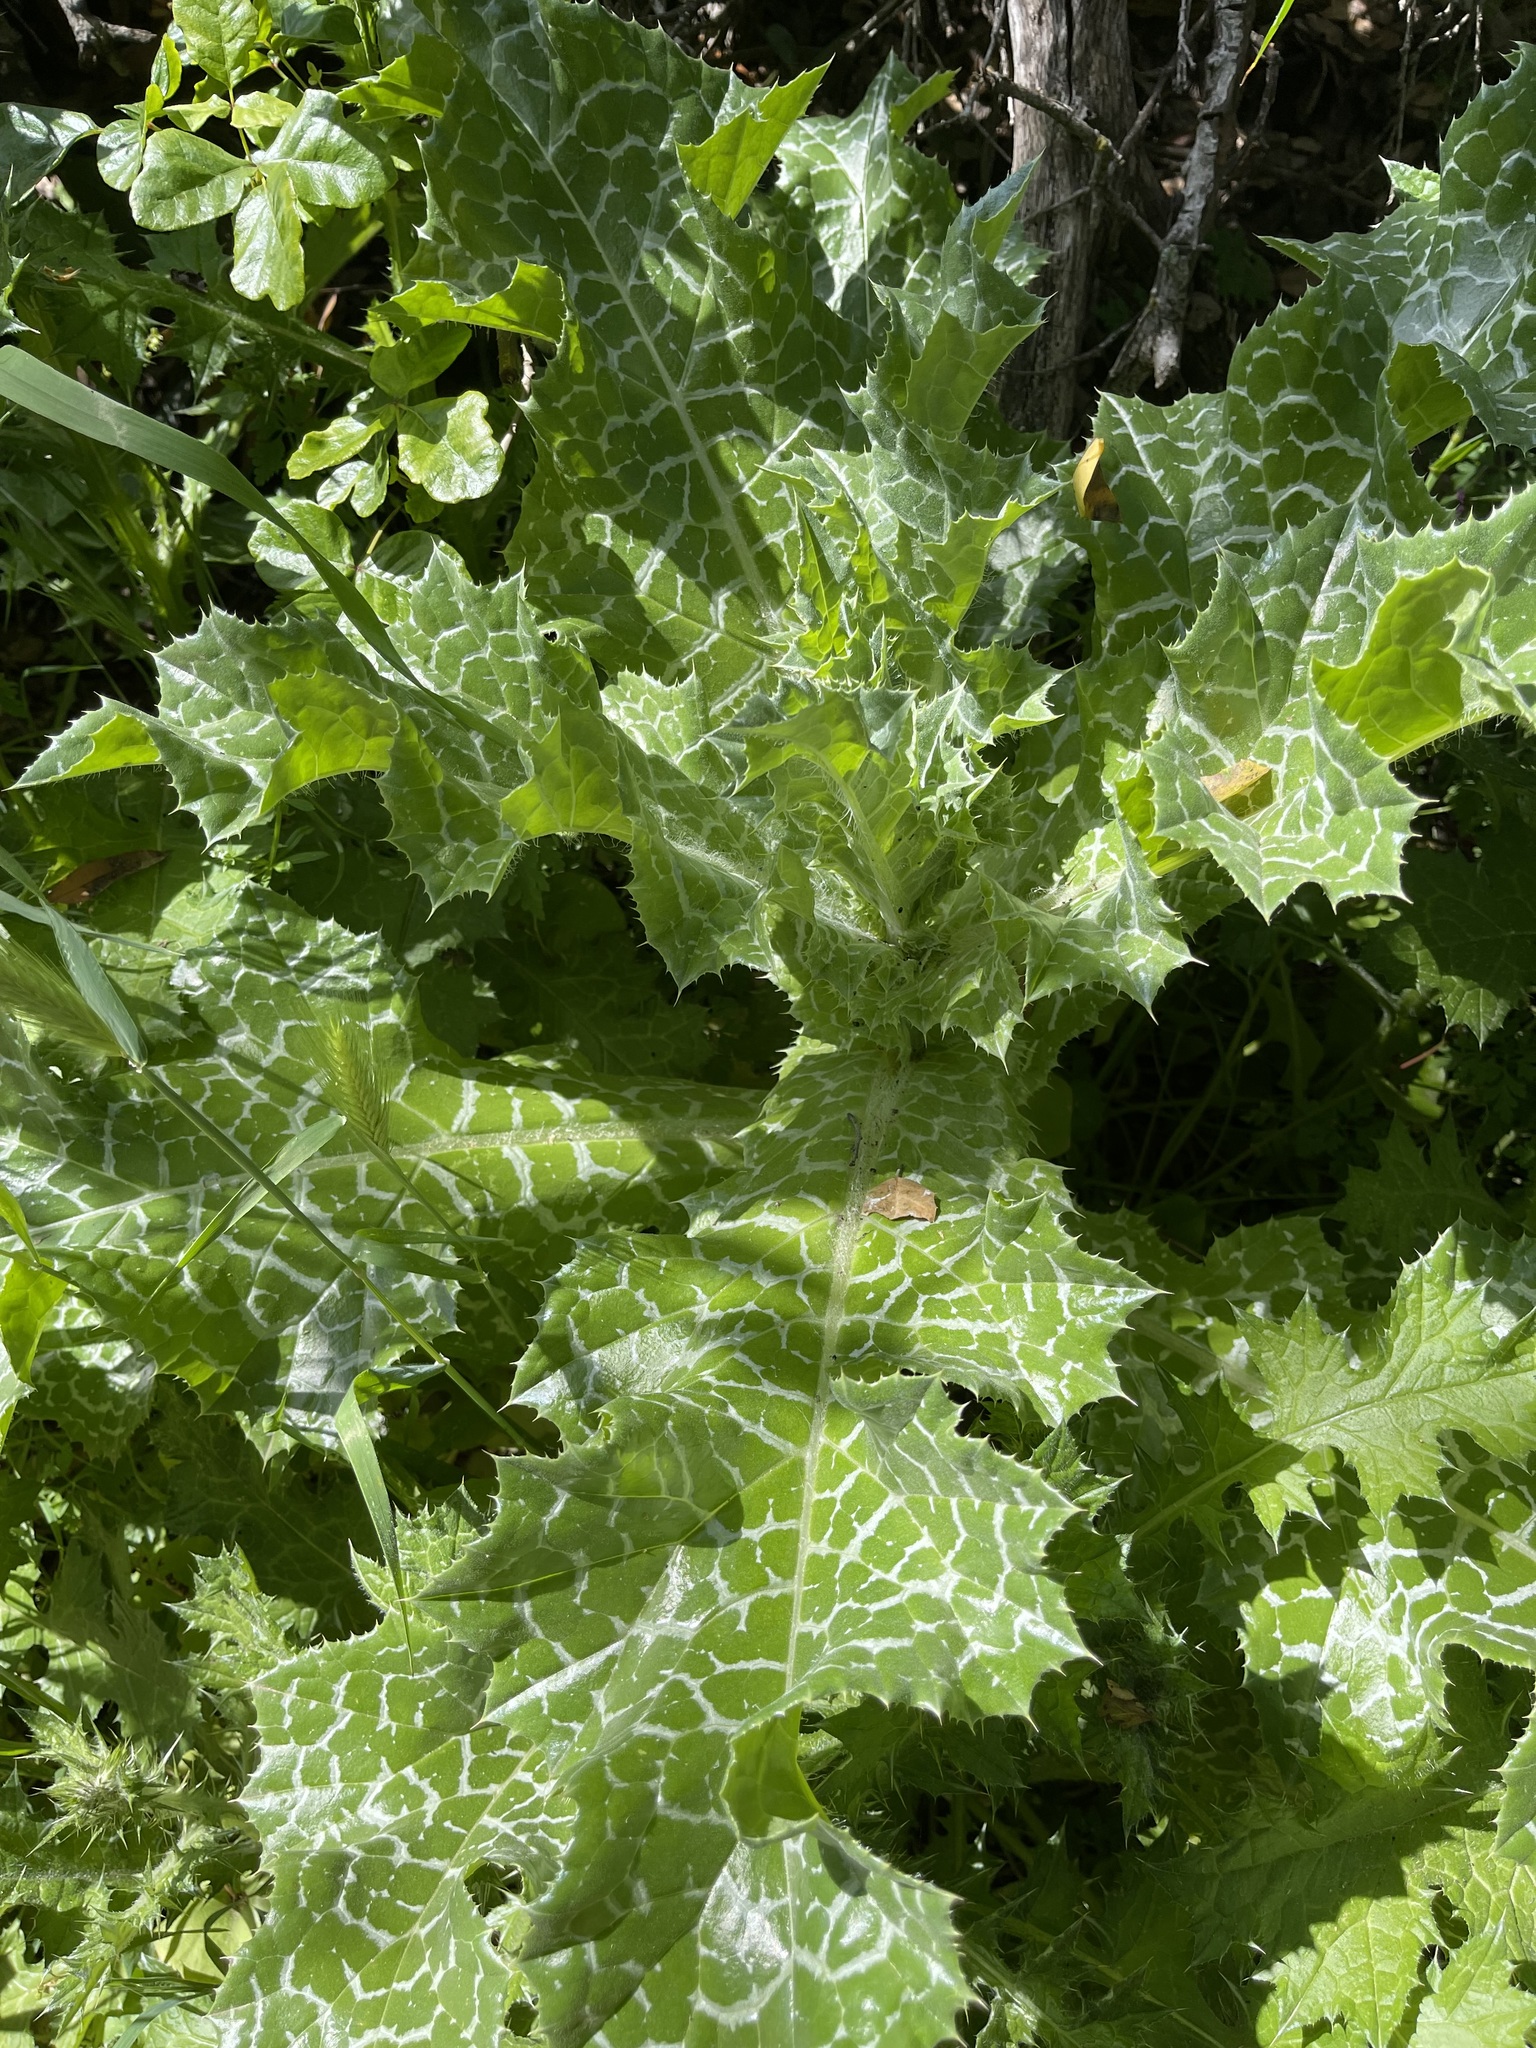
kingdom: Plantae
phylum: Tracheophyta
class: Magnoliopsida
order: Asterales
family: Asteraceae
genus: Silybum
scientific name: Silybum marianum
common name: Milk thistle
